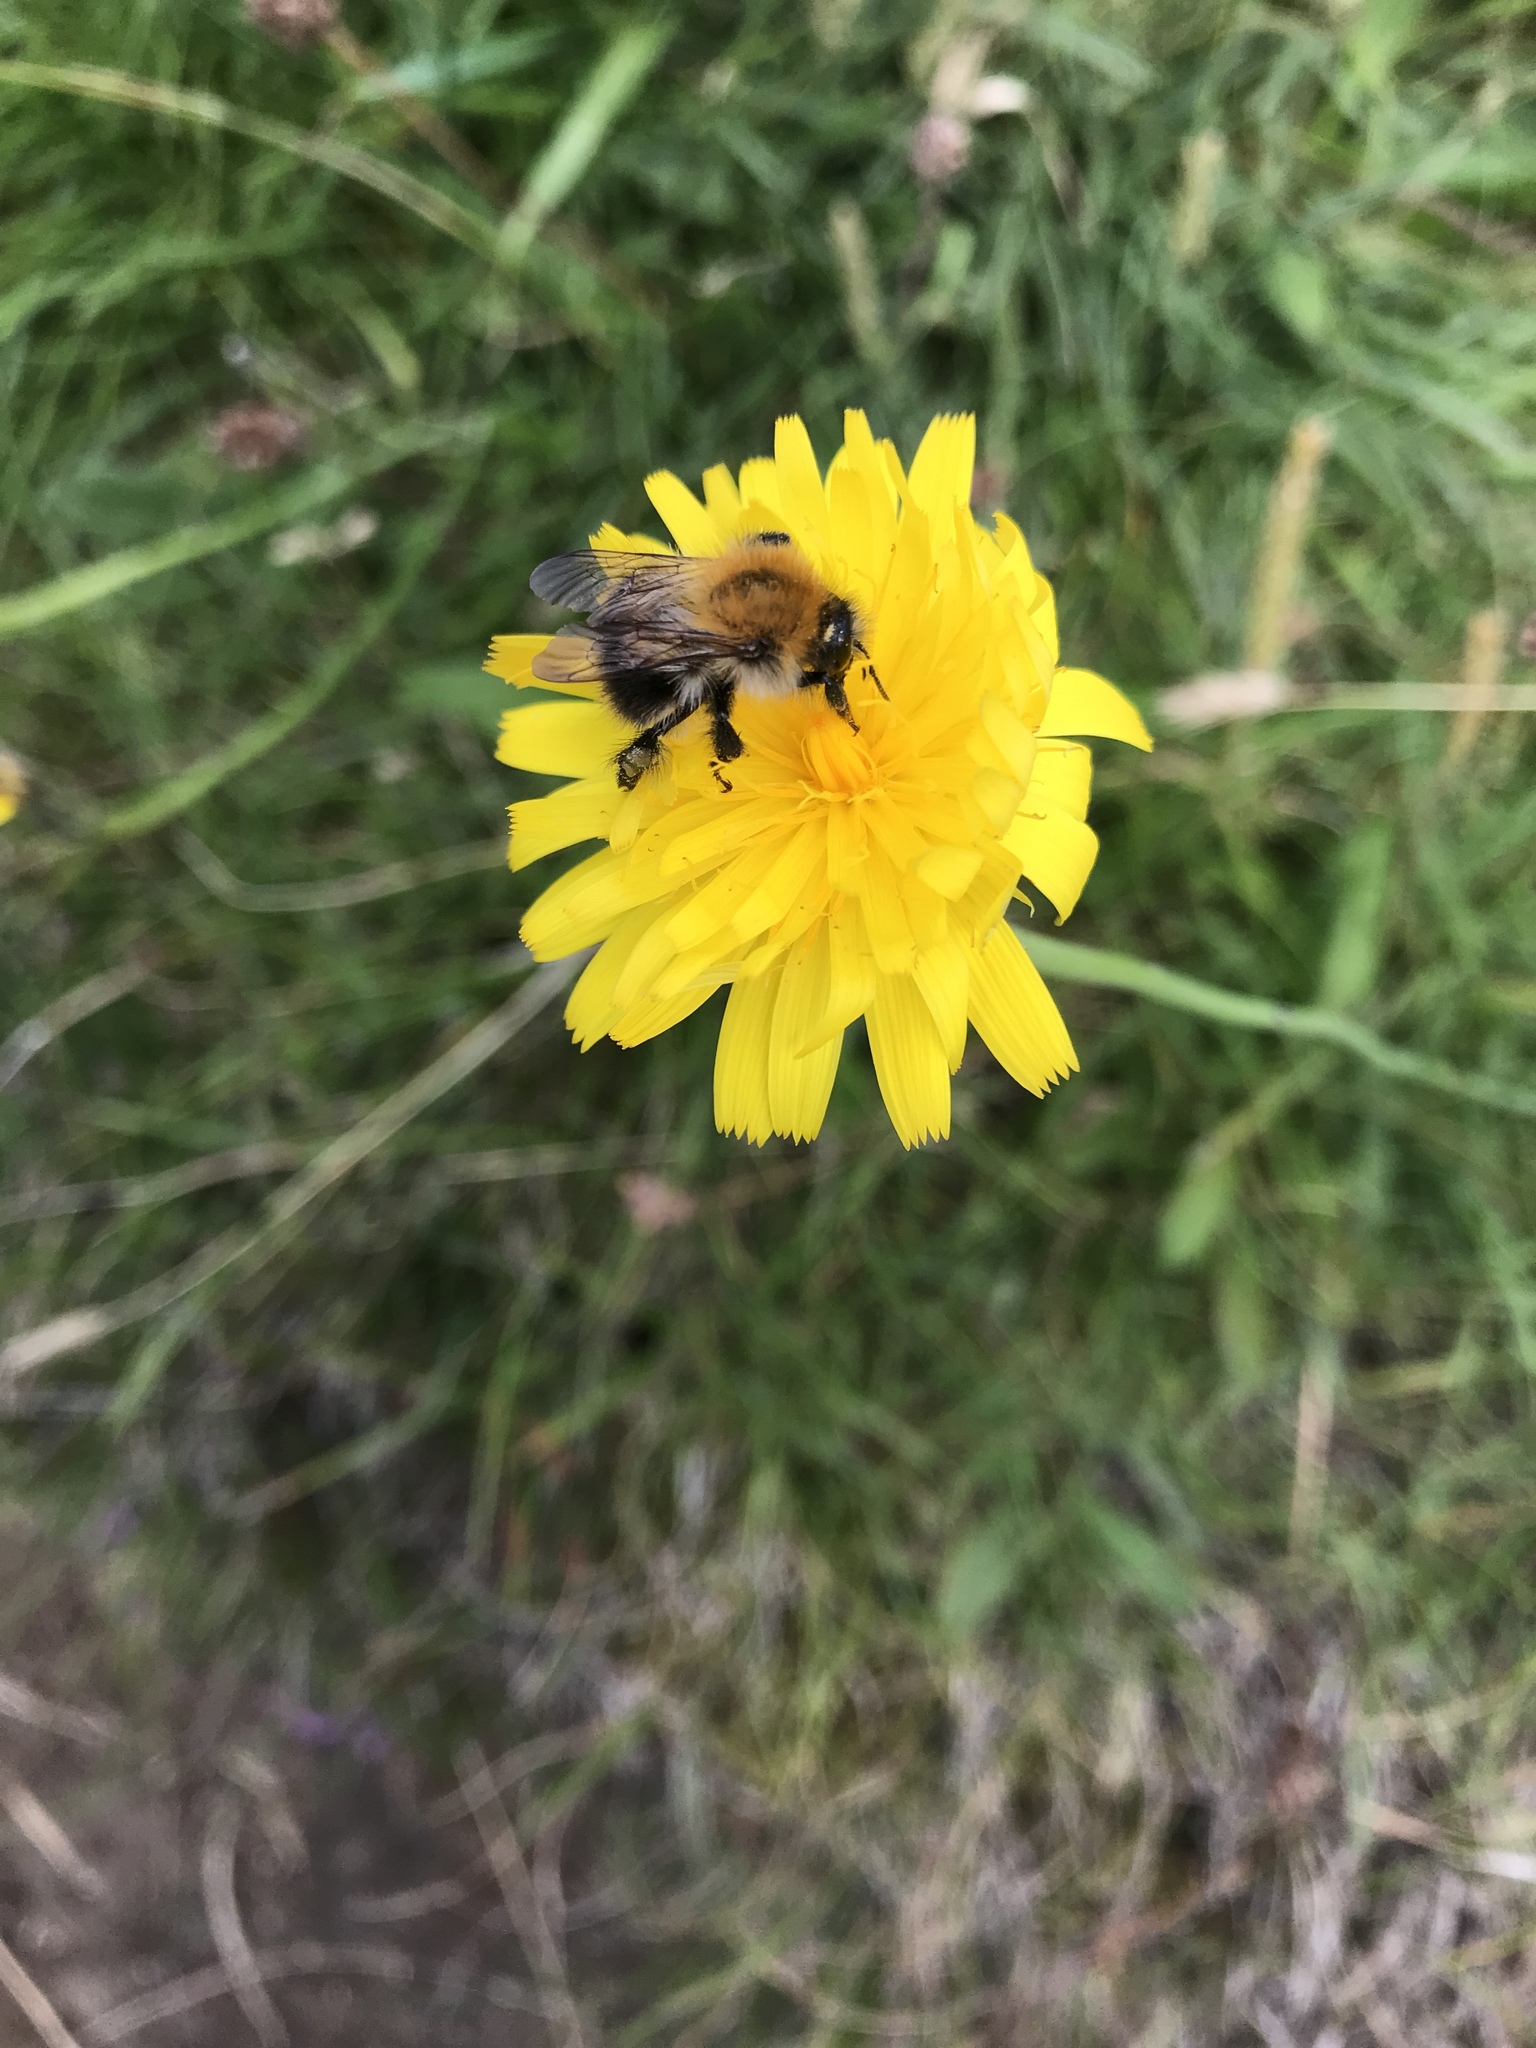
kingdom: Animalia
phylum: Arthropoda
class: Insecta
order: Hymenoptera
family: Apidae
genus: Bombus
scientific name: Bombus pascuorum
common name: Common carder bee
